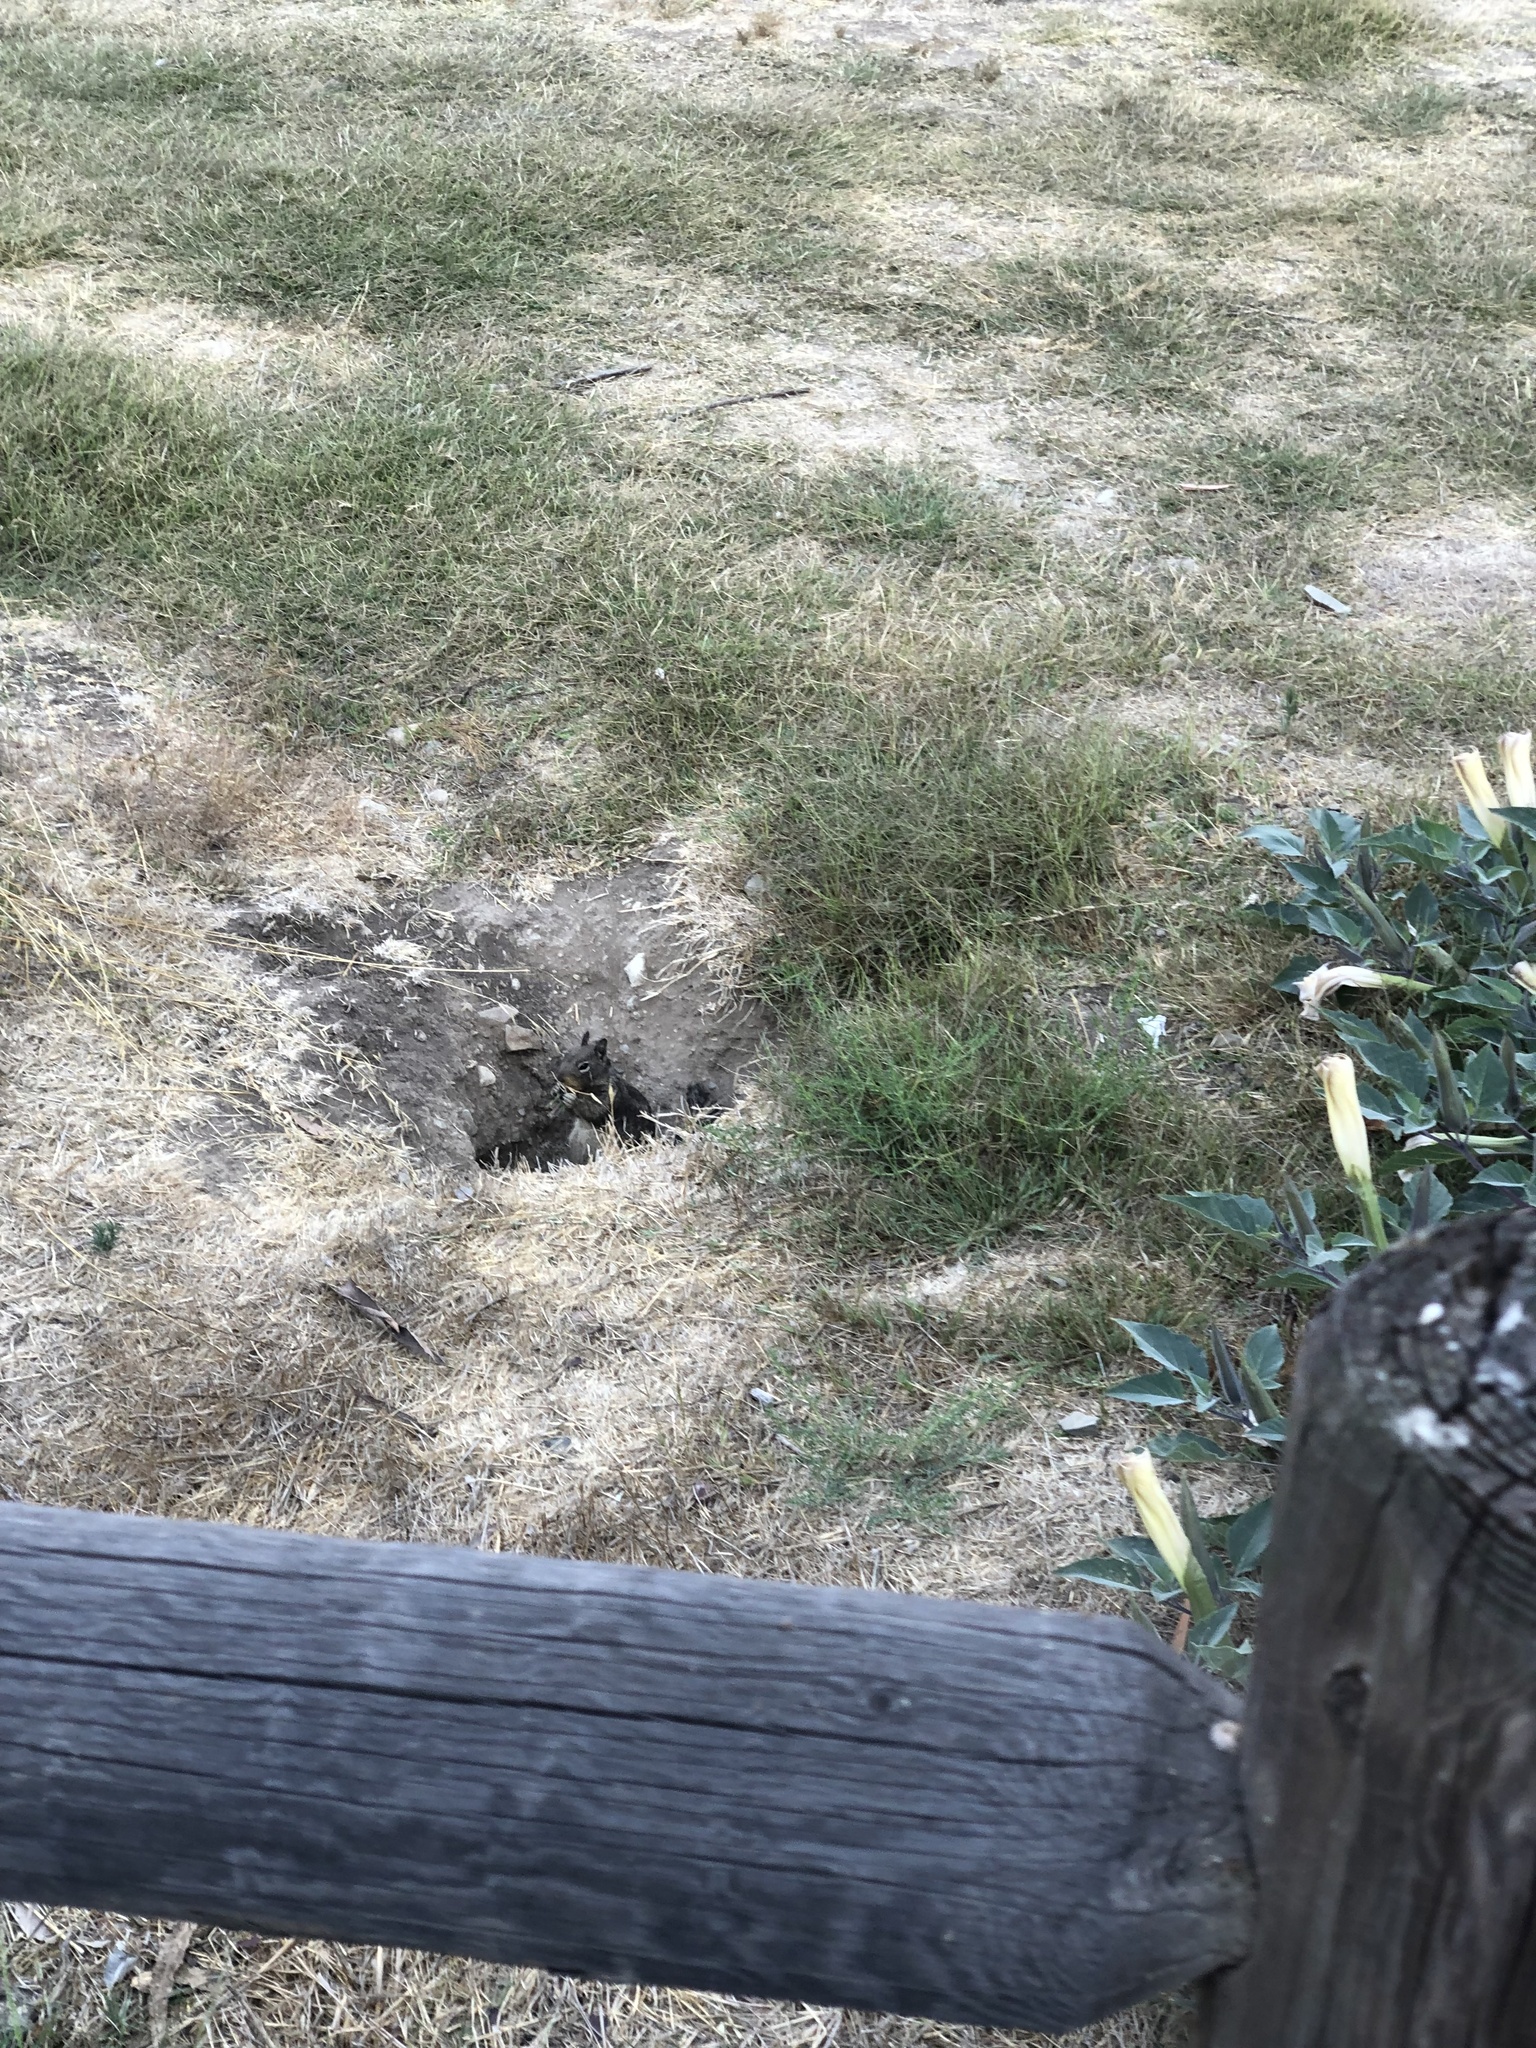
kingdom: Animalia
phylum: Chordata
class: Mammalia
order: Rodentia
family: Sciuridae
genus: Otospermophilus
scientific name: Otospermophilus beecheyi
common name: California ground squirrel
